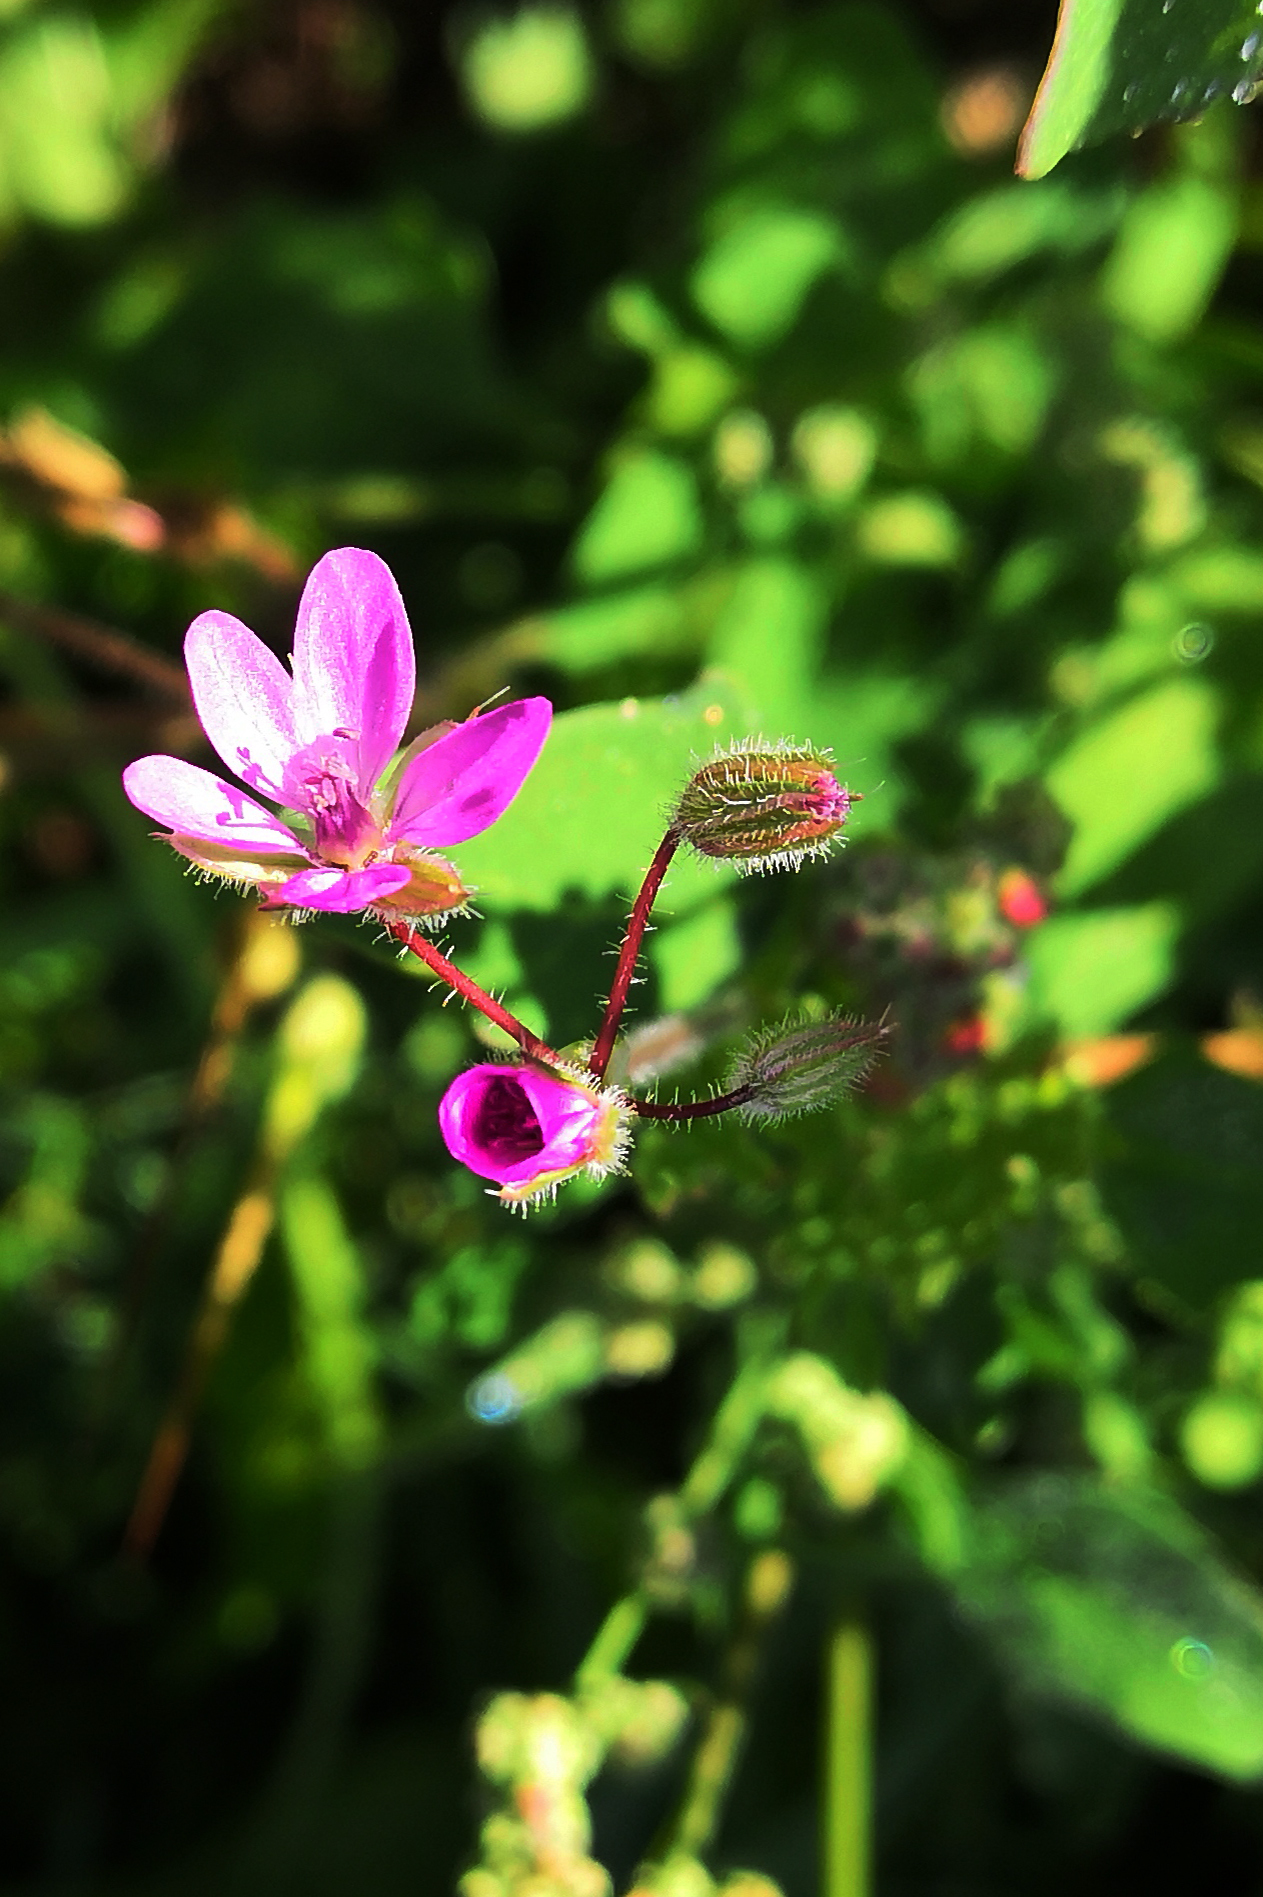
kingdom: Plantae
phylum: Tracheophyta
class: Magnoliopsida
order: Geraniales
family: Geraniaceae
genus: Erodium
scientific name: Erodium cicutarium
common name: Common stork's-bill
